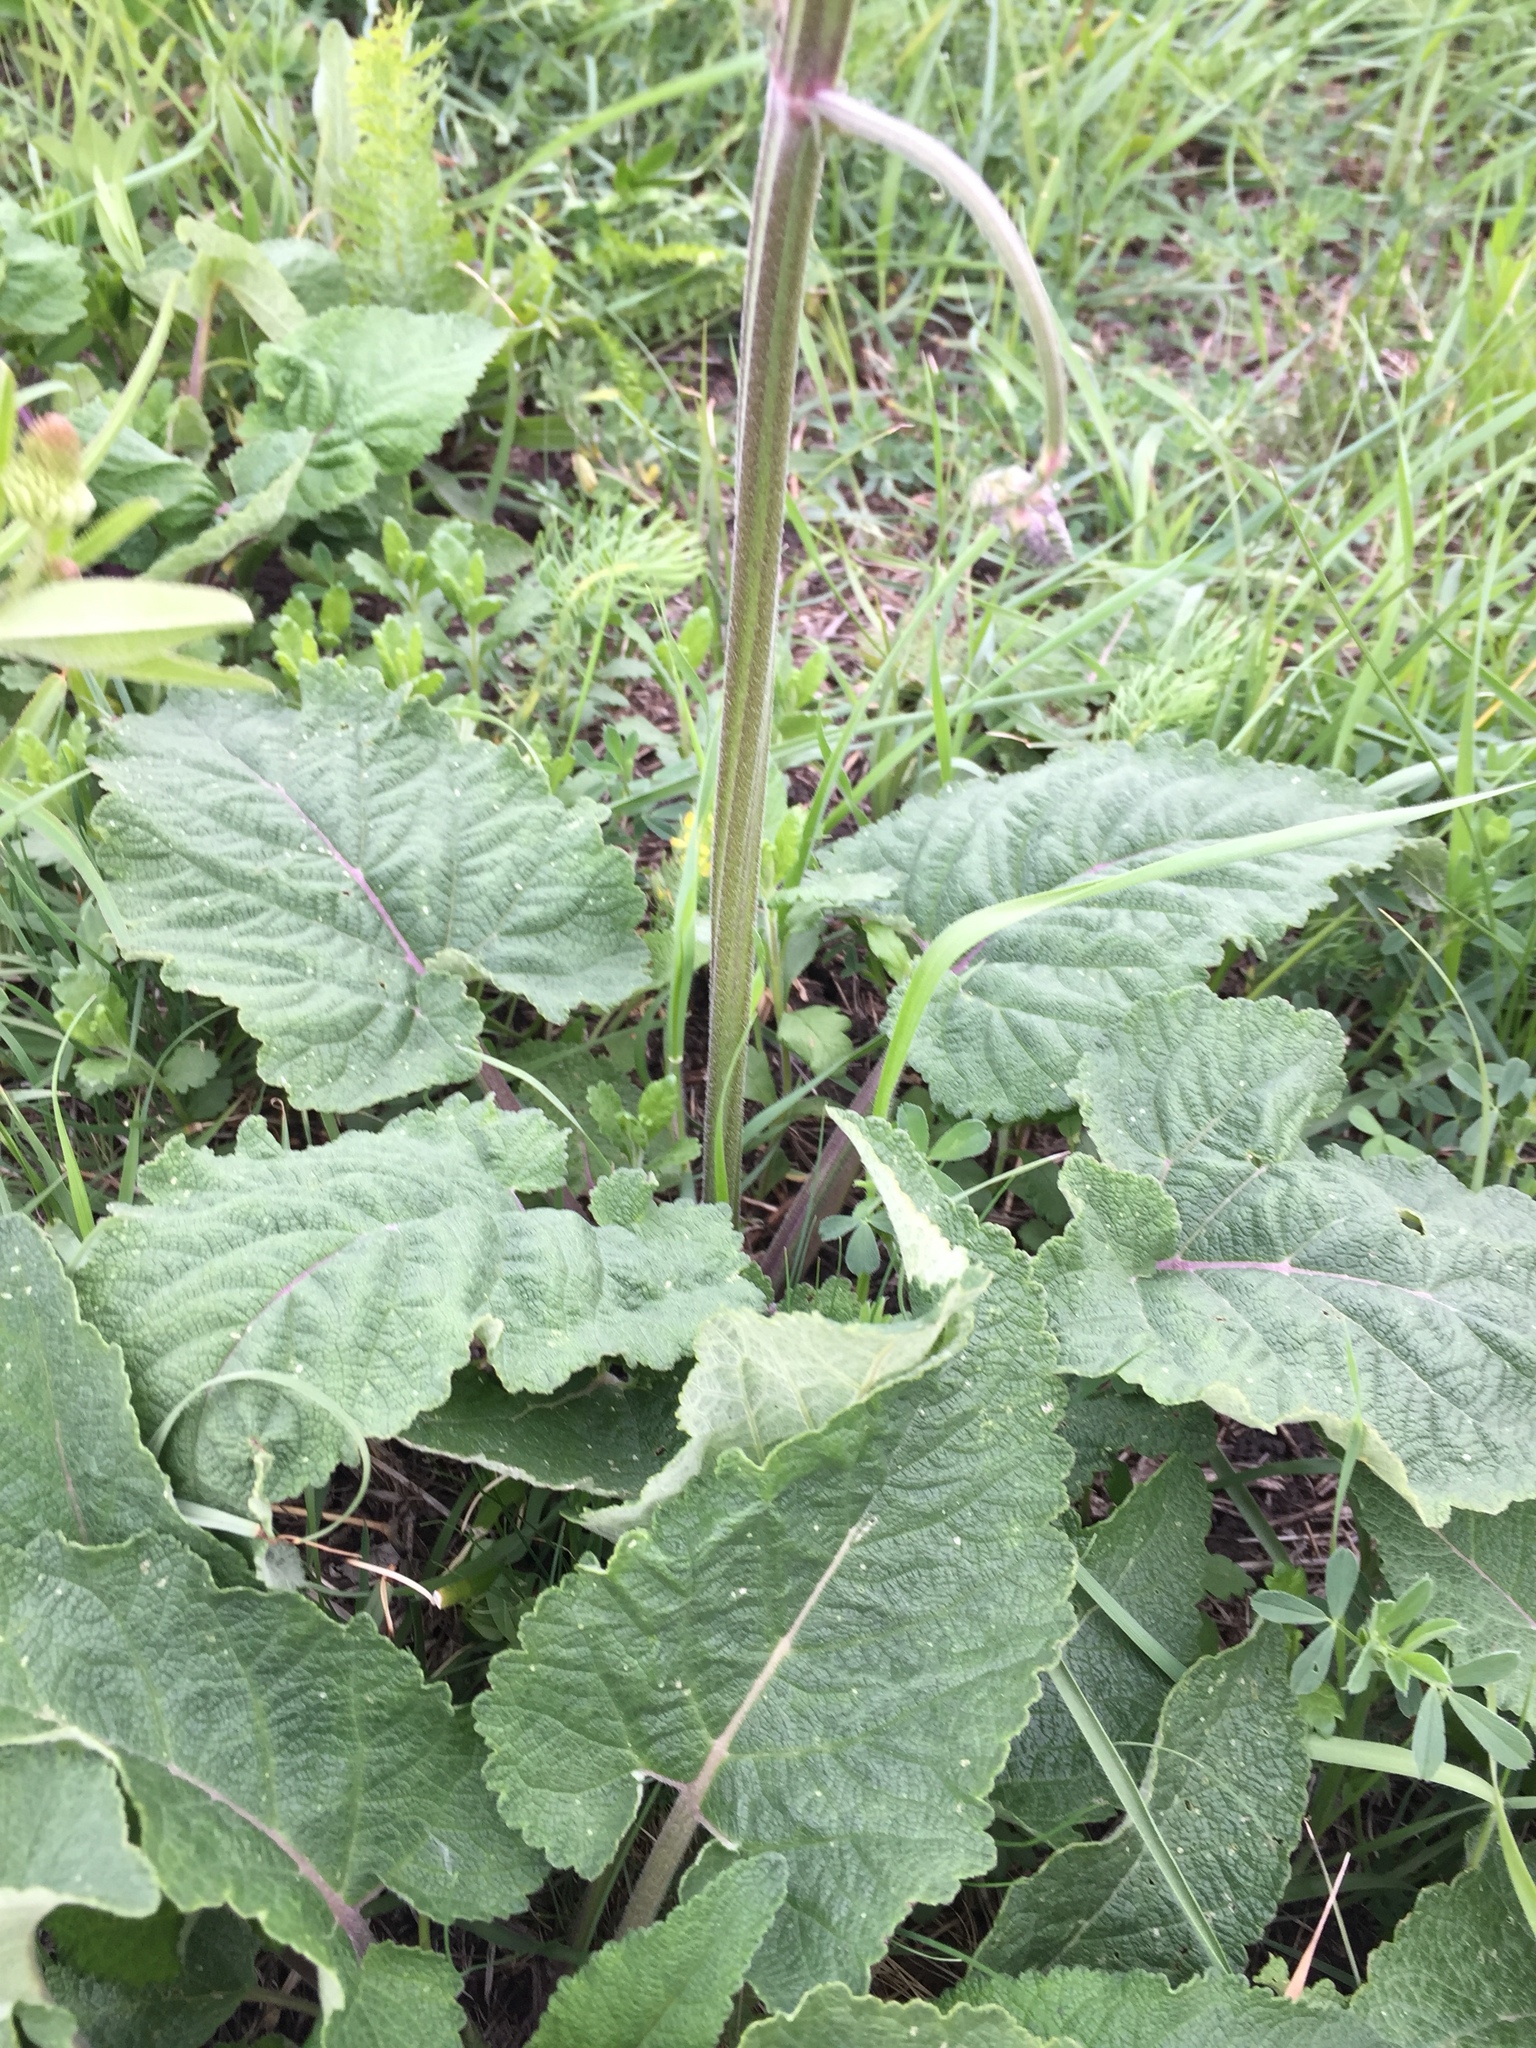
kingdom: Plantae
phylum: Tracheophyta
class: Magnoliopsida
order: Lamiales
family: Lamiaceae
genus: Salvia
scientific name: Salvia nutans
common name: Nodding sage
